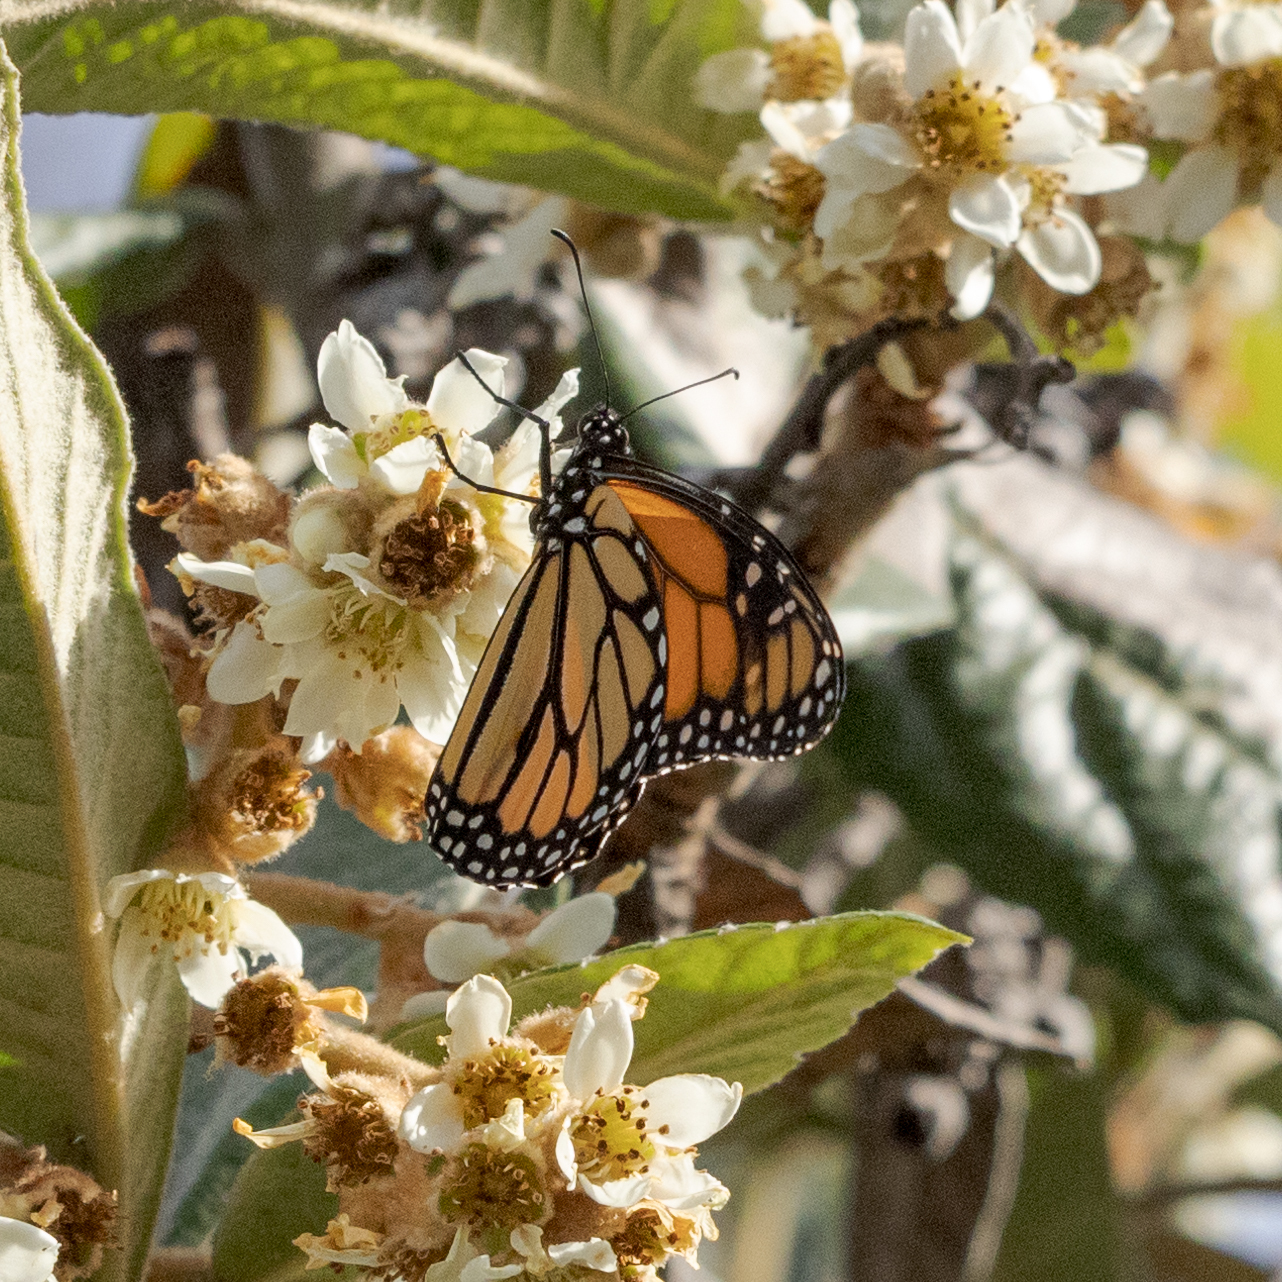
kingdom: Animalia
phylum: Arthropoda
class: Insecta
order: Lepidoptera
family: Nymphalidae
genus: Danaus
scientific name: Danaus plexippus
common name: Monarch
